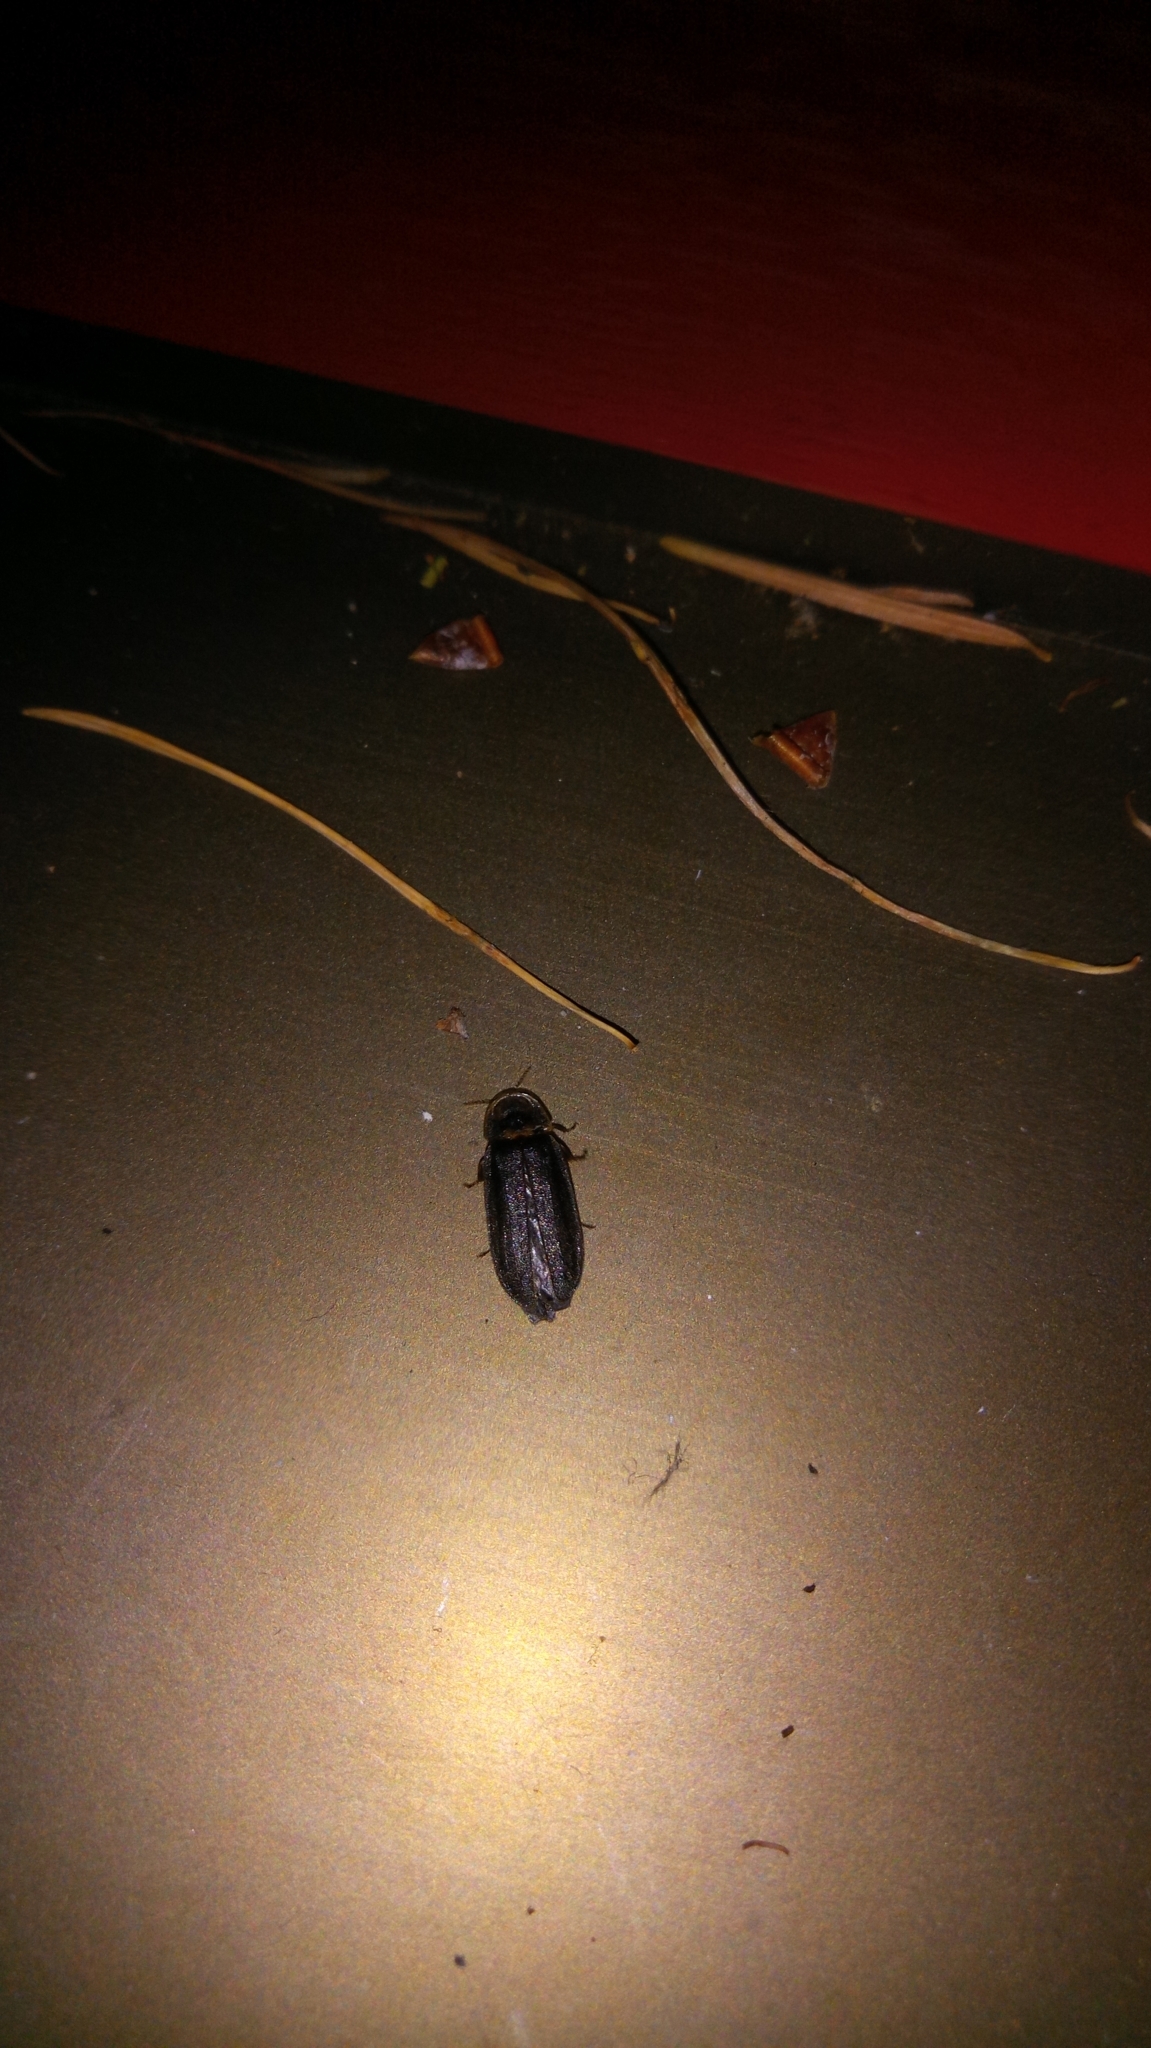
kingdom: Animalia
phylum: Arthropoda
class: Insecta
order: Coleoptera
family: Lampyridae
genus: Lamprohiza
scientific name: Lamprohiza splendidula
